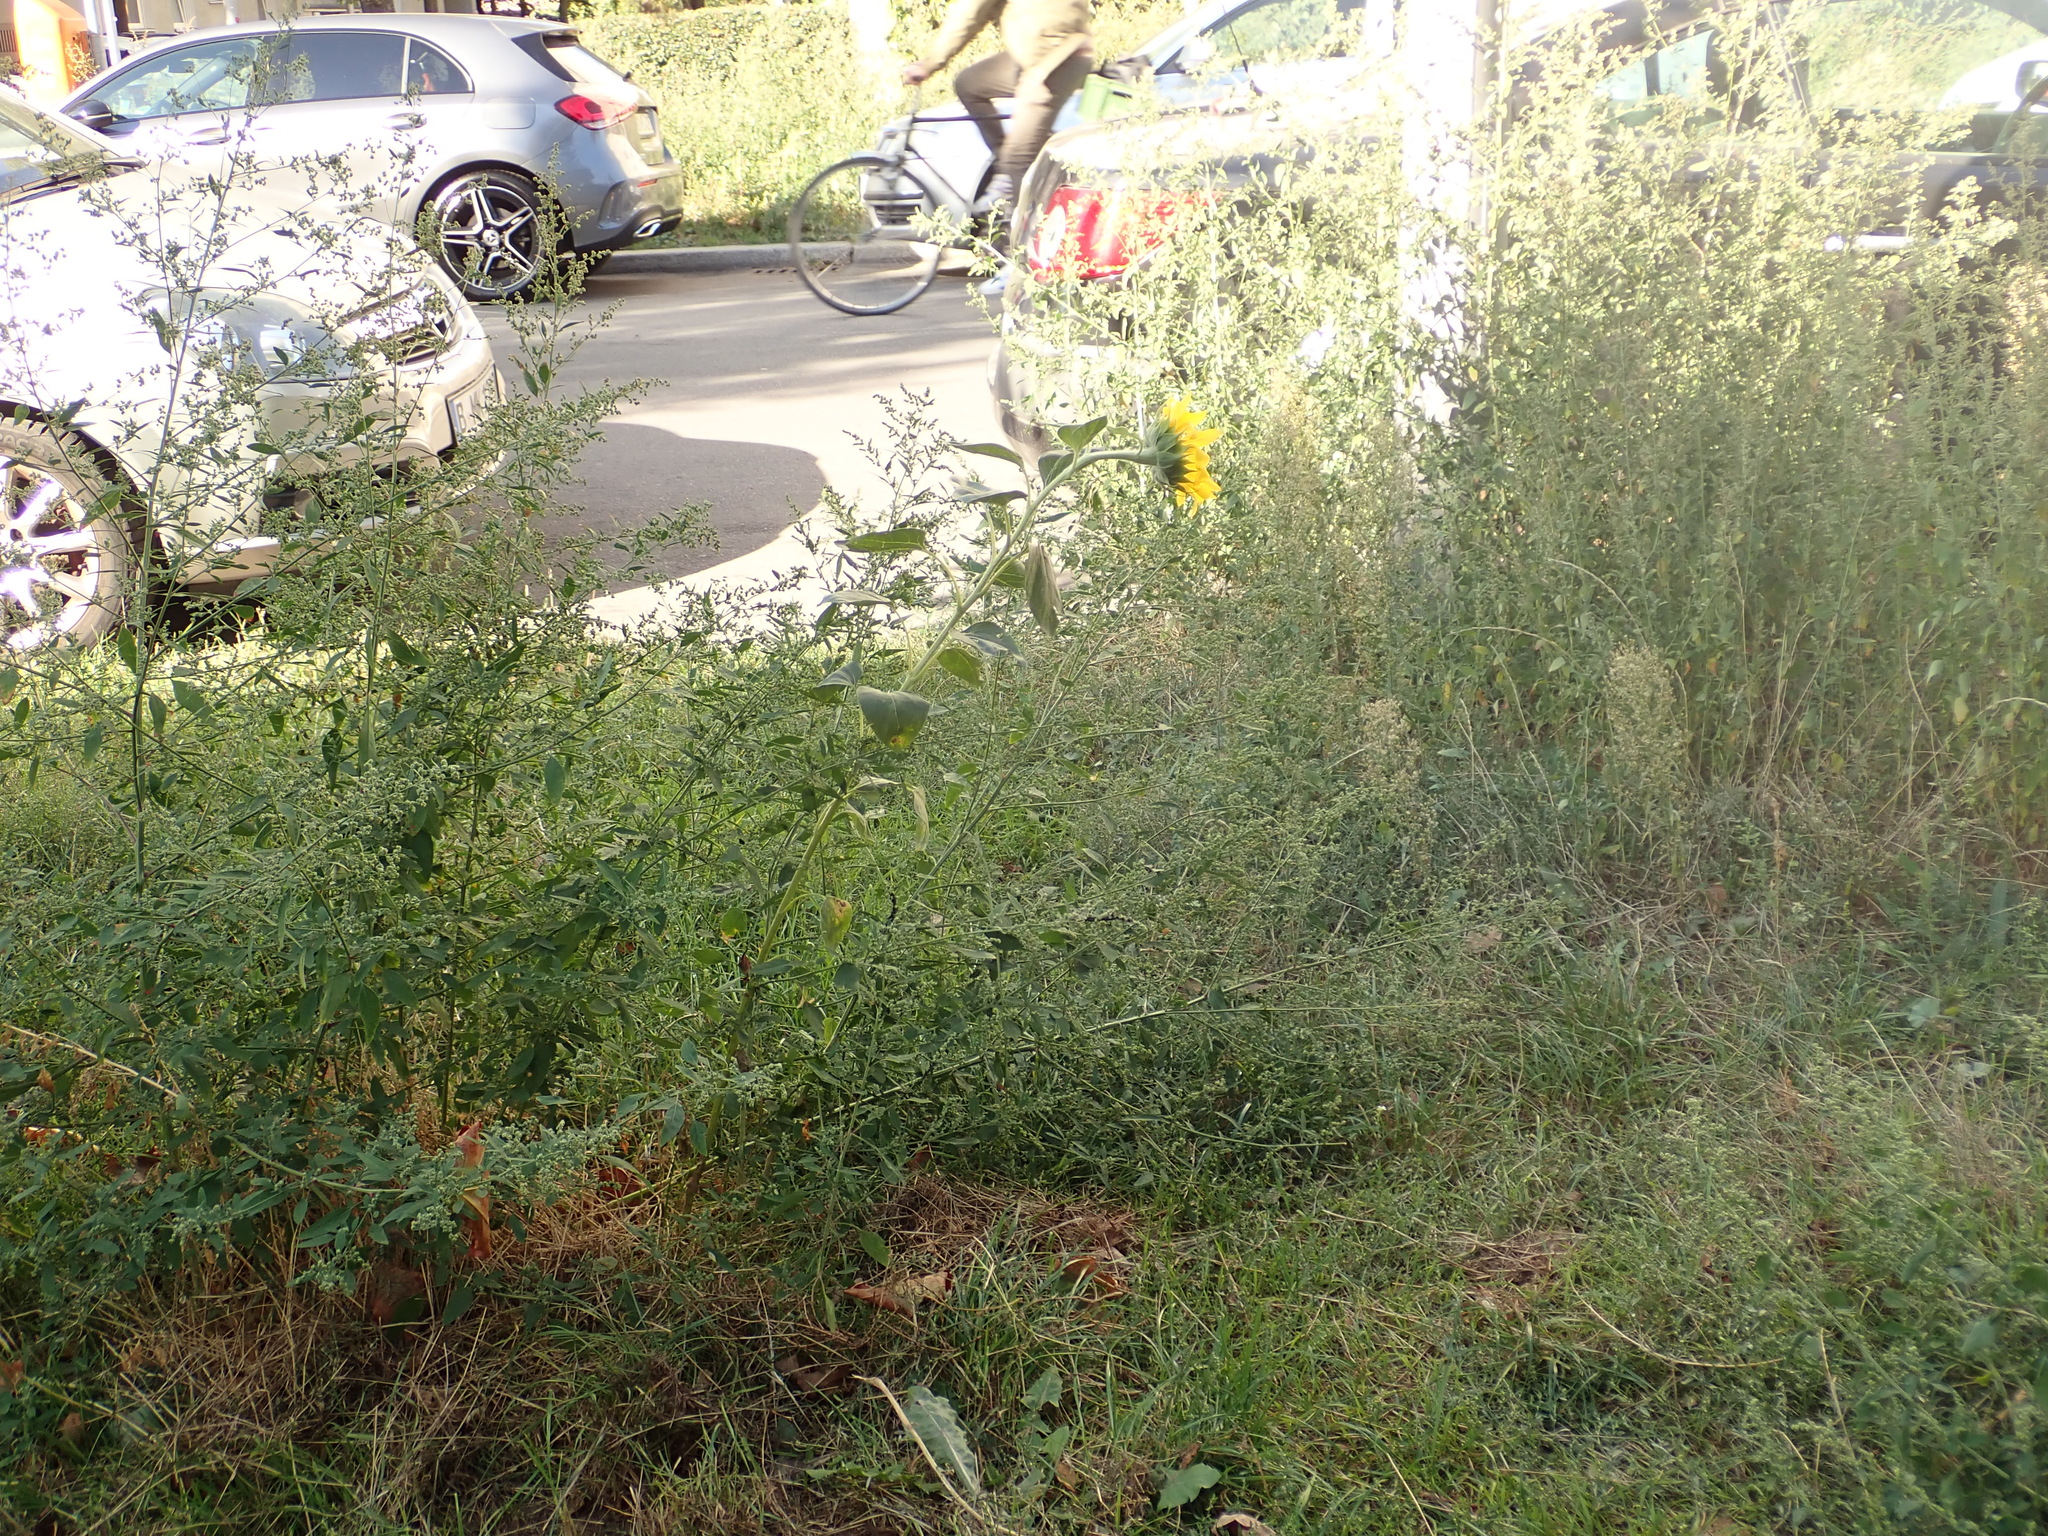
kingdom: Plantae
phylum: Tracheophyta
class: Magnoliopsida
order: Asterales
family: Asteraceae
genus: Helianthus
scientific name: Helianthus annuus
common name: Sunflower
